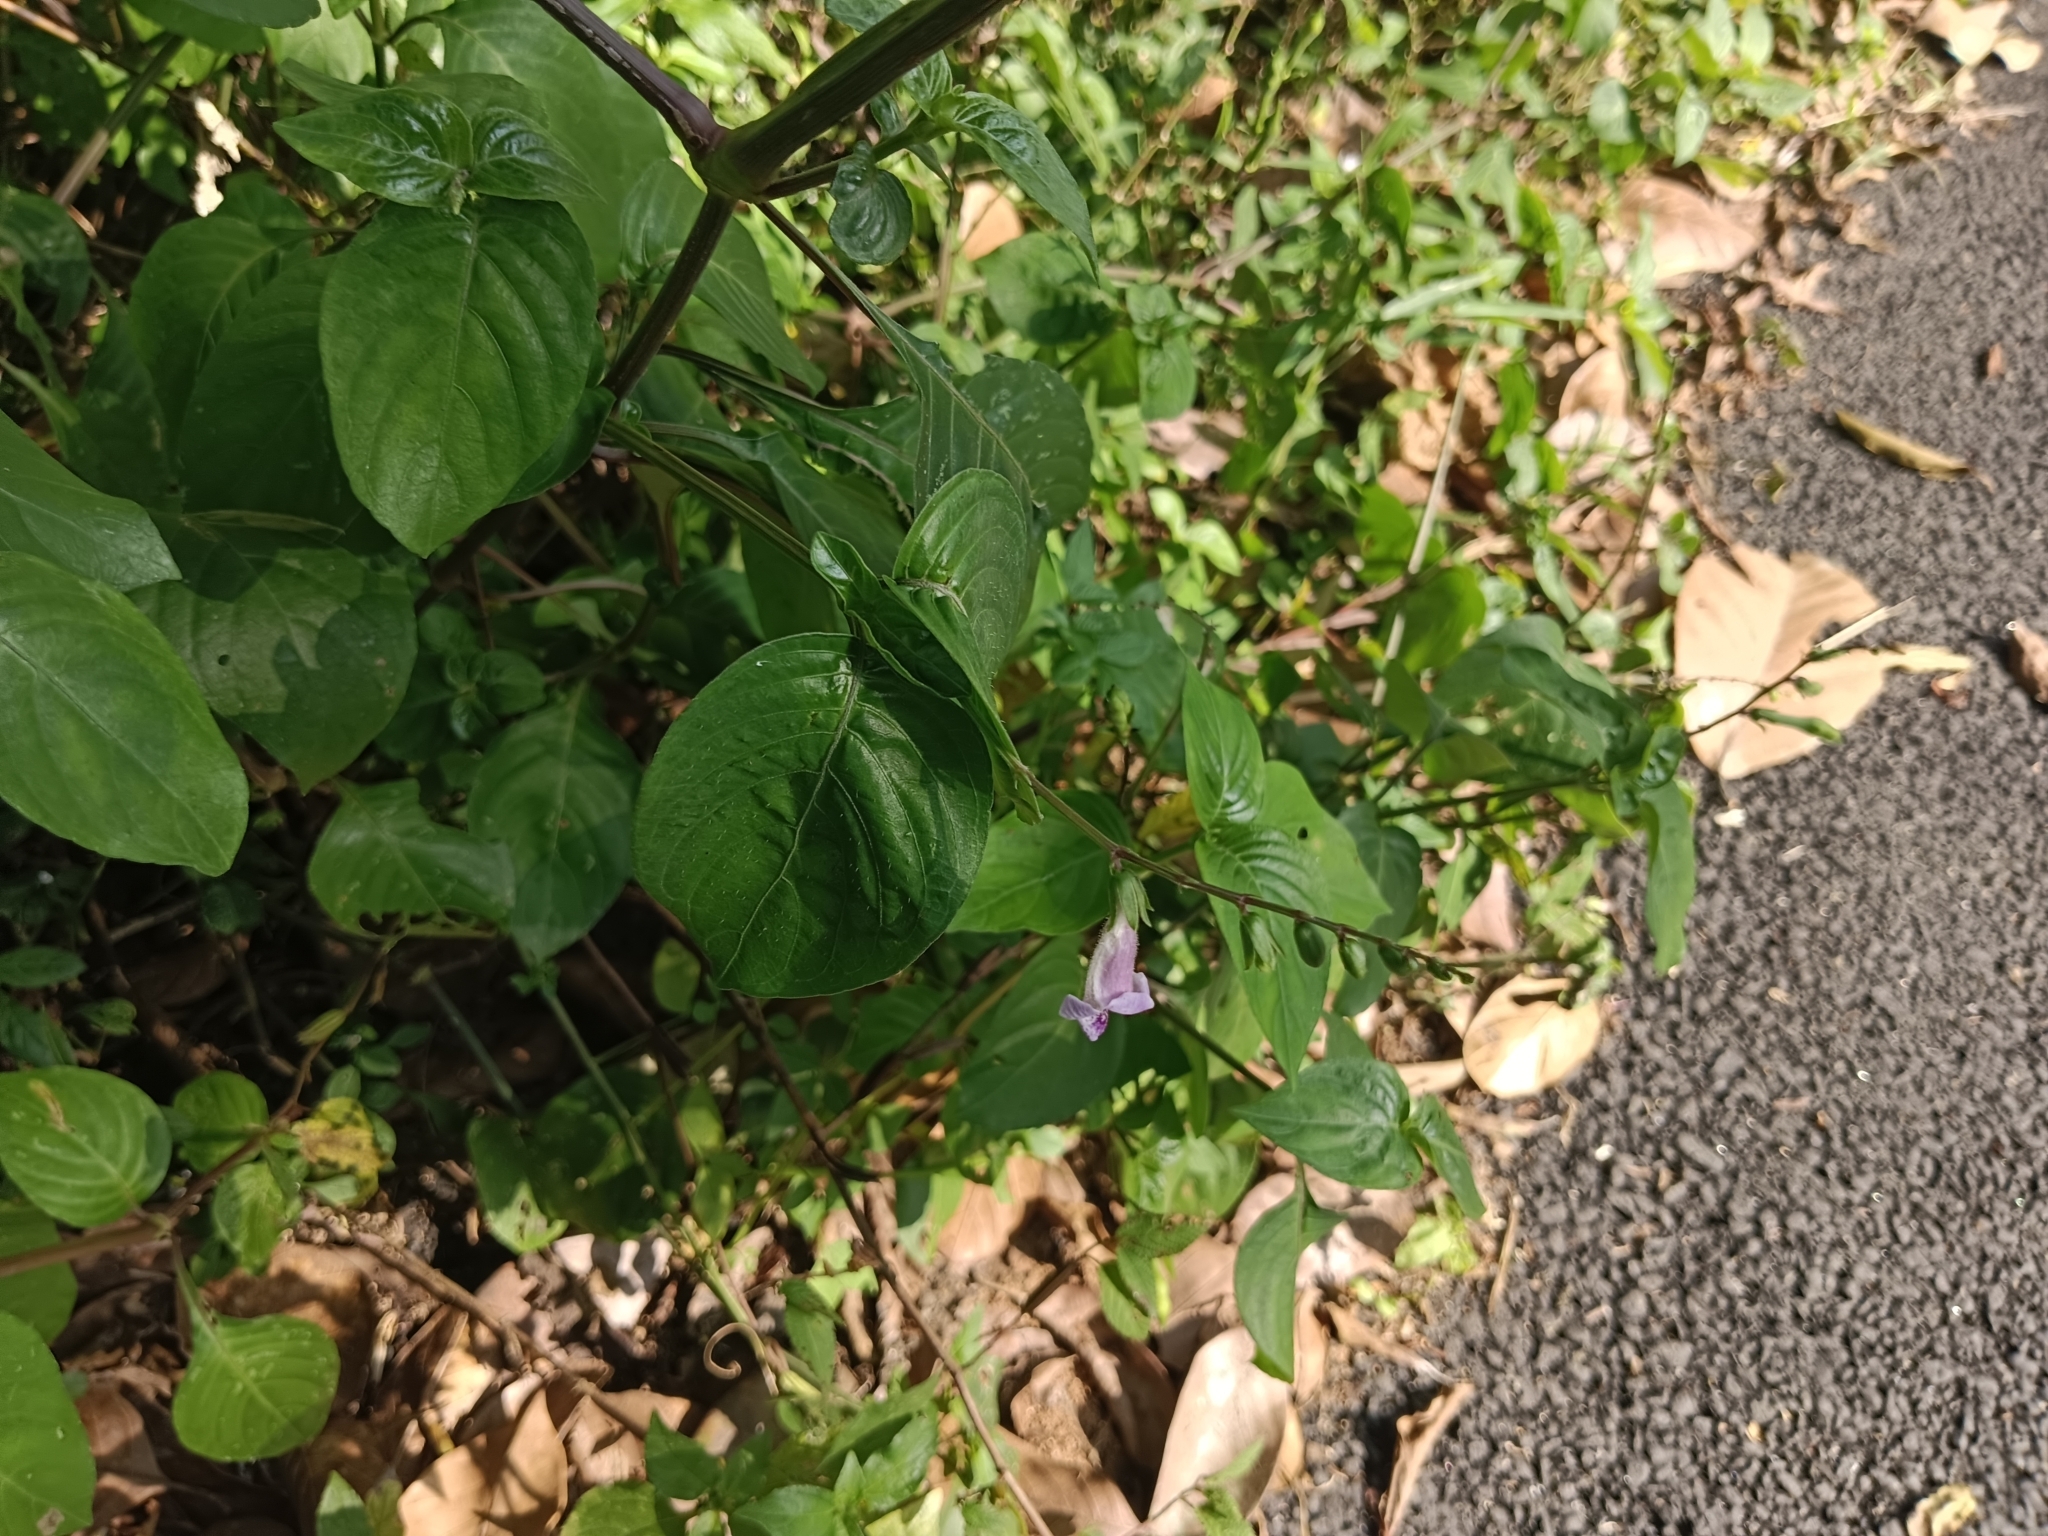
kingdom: Plantae
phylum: Tracheophyta
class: Magnoliopsida
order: Lamiales
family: Acanthaceae
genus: Asystasia
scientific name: Asystasia dalzelliana
